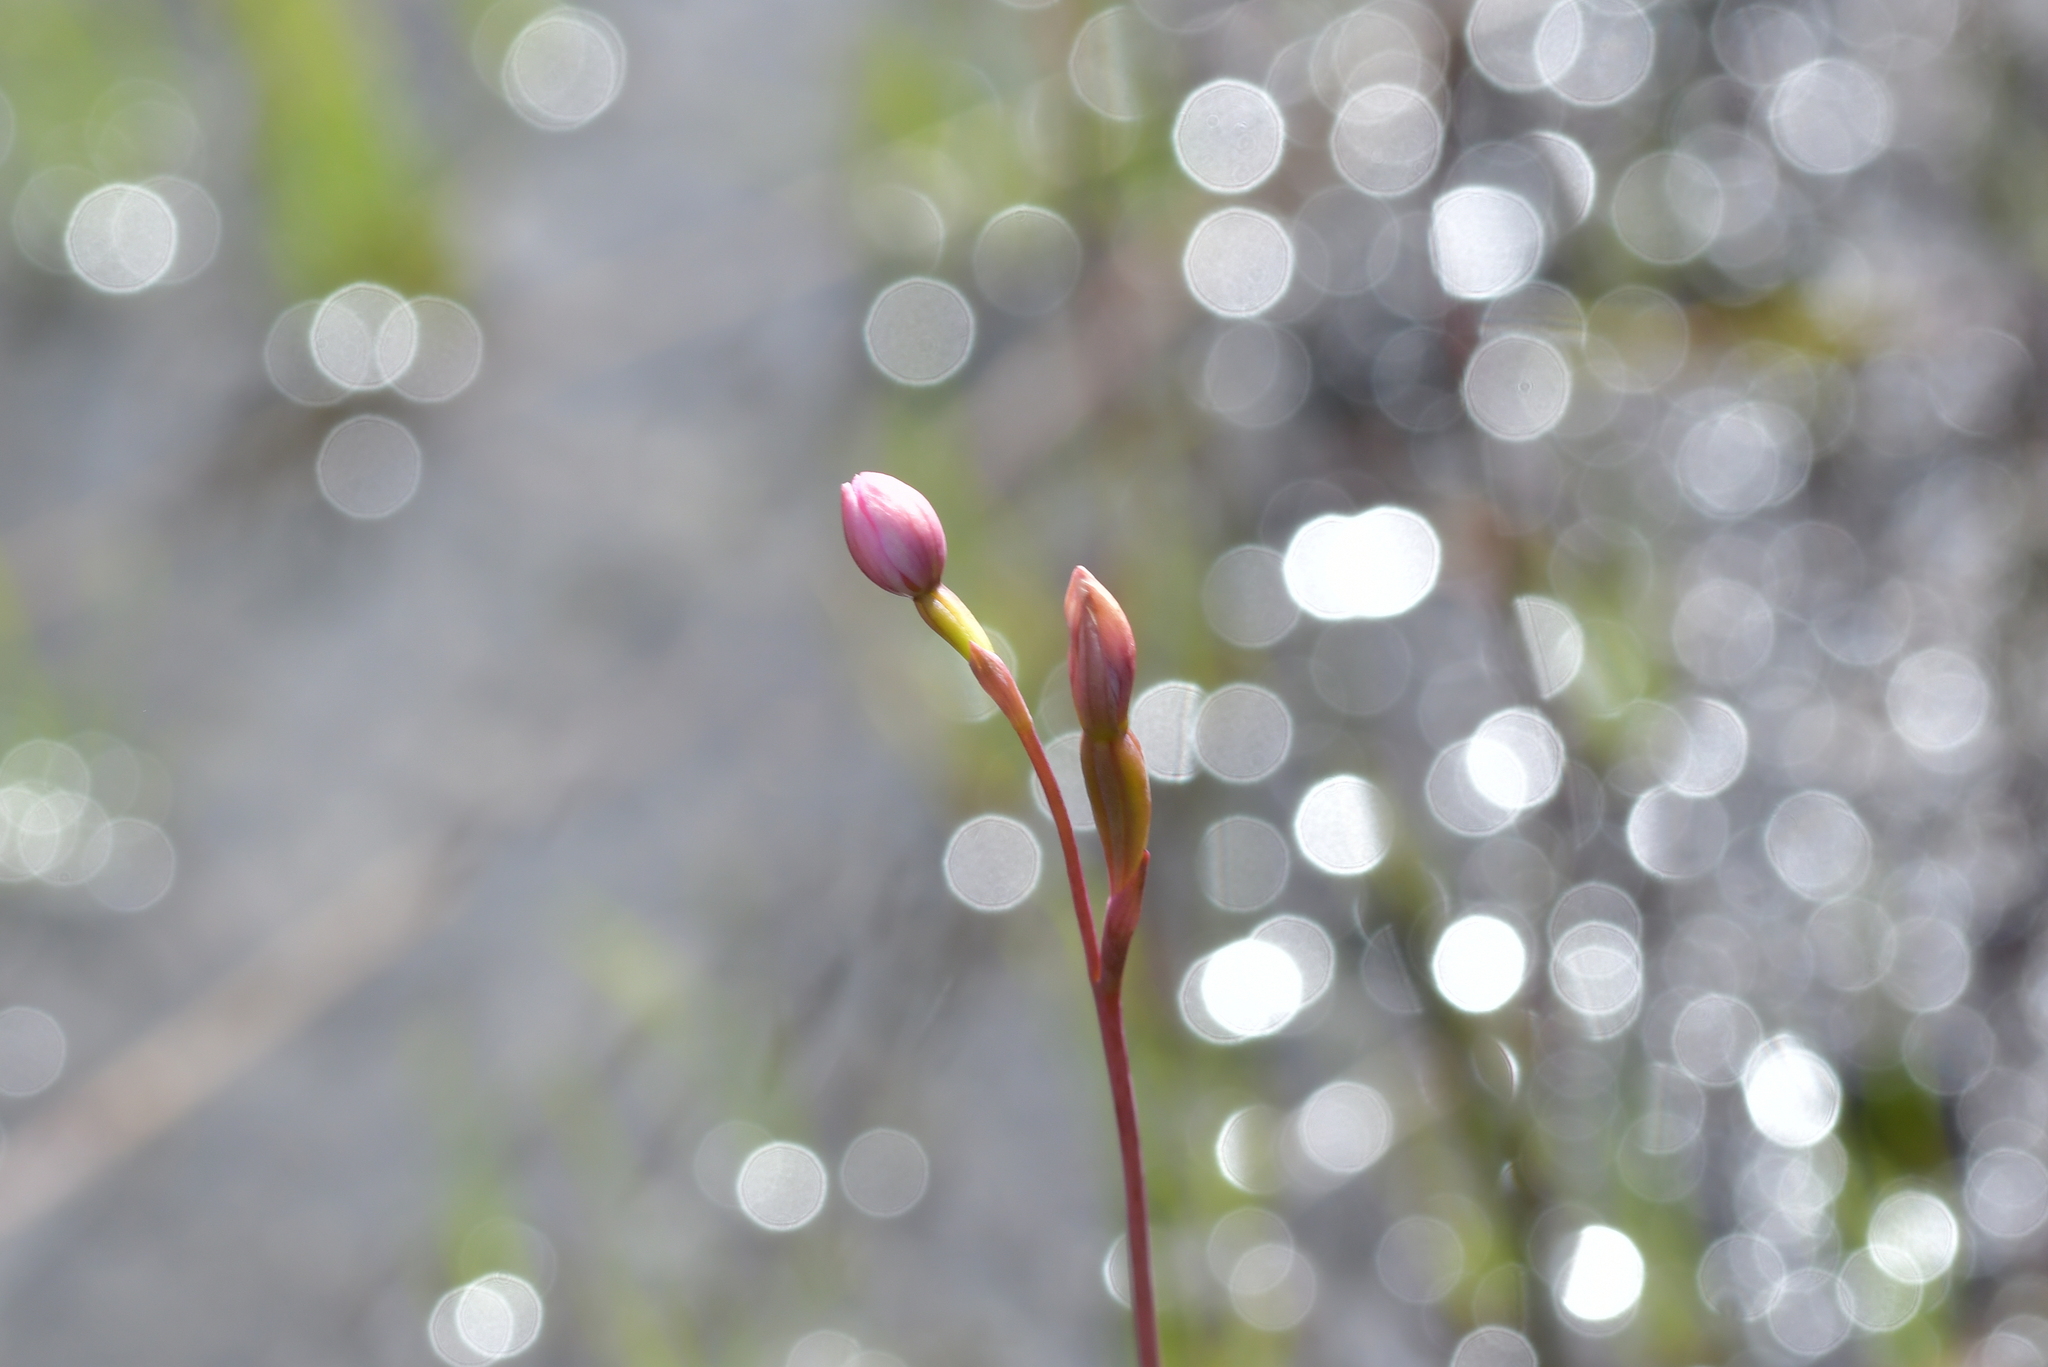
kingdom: Plantae
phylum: Tracheophyta
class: Liliopsida
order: Asparagales
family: Orchidaceae
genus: Thelymitra
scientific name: Thelymitra carnea
